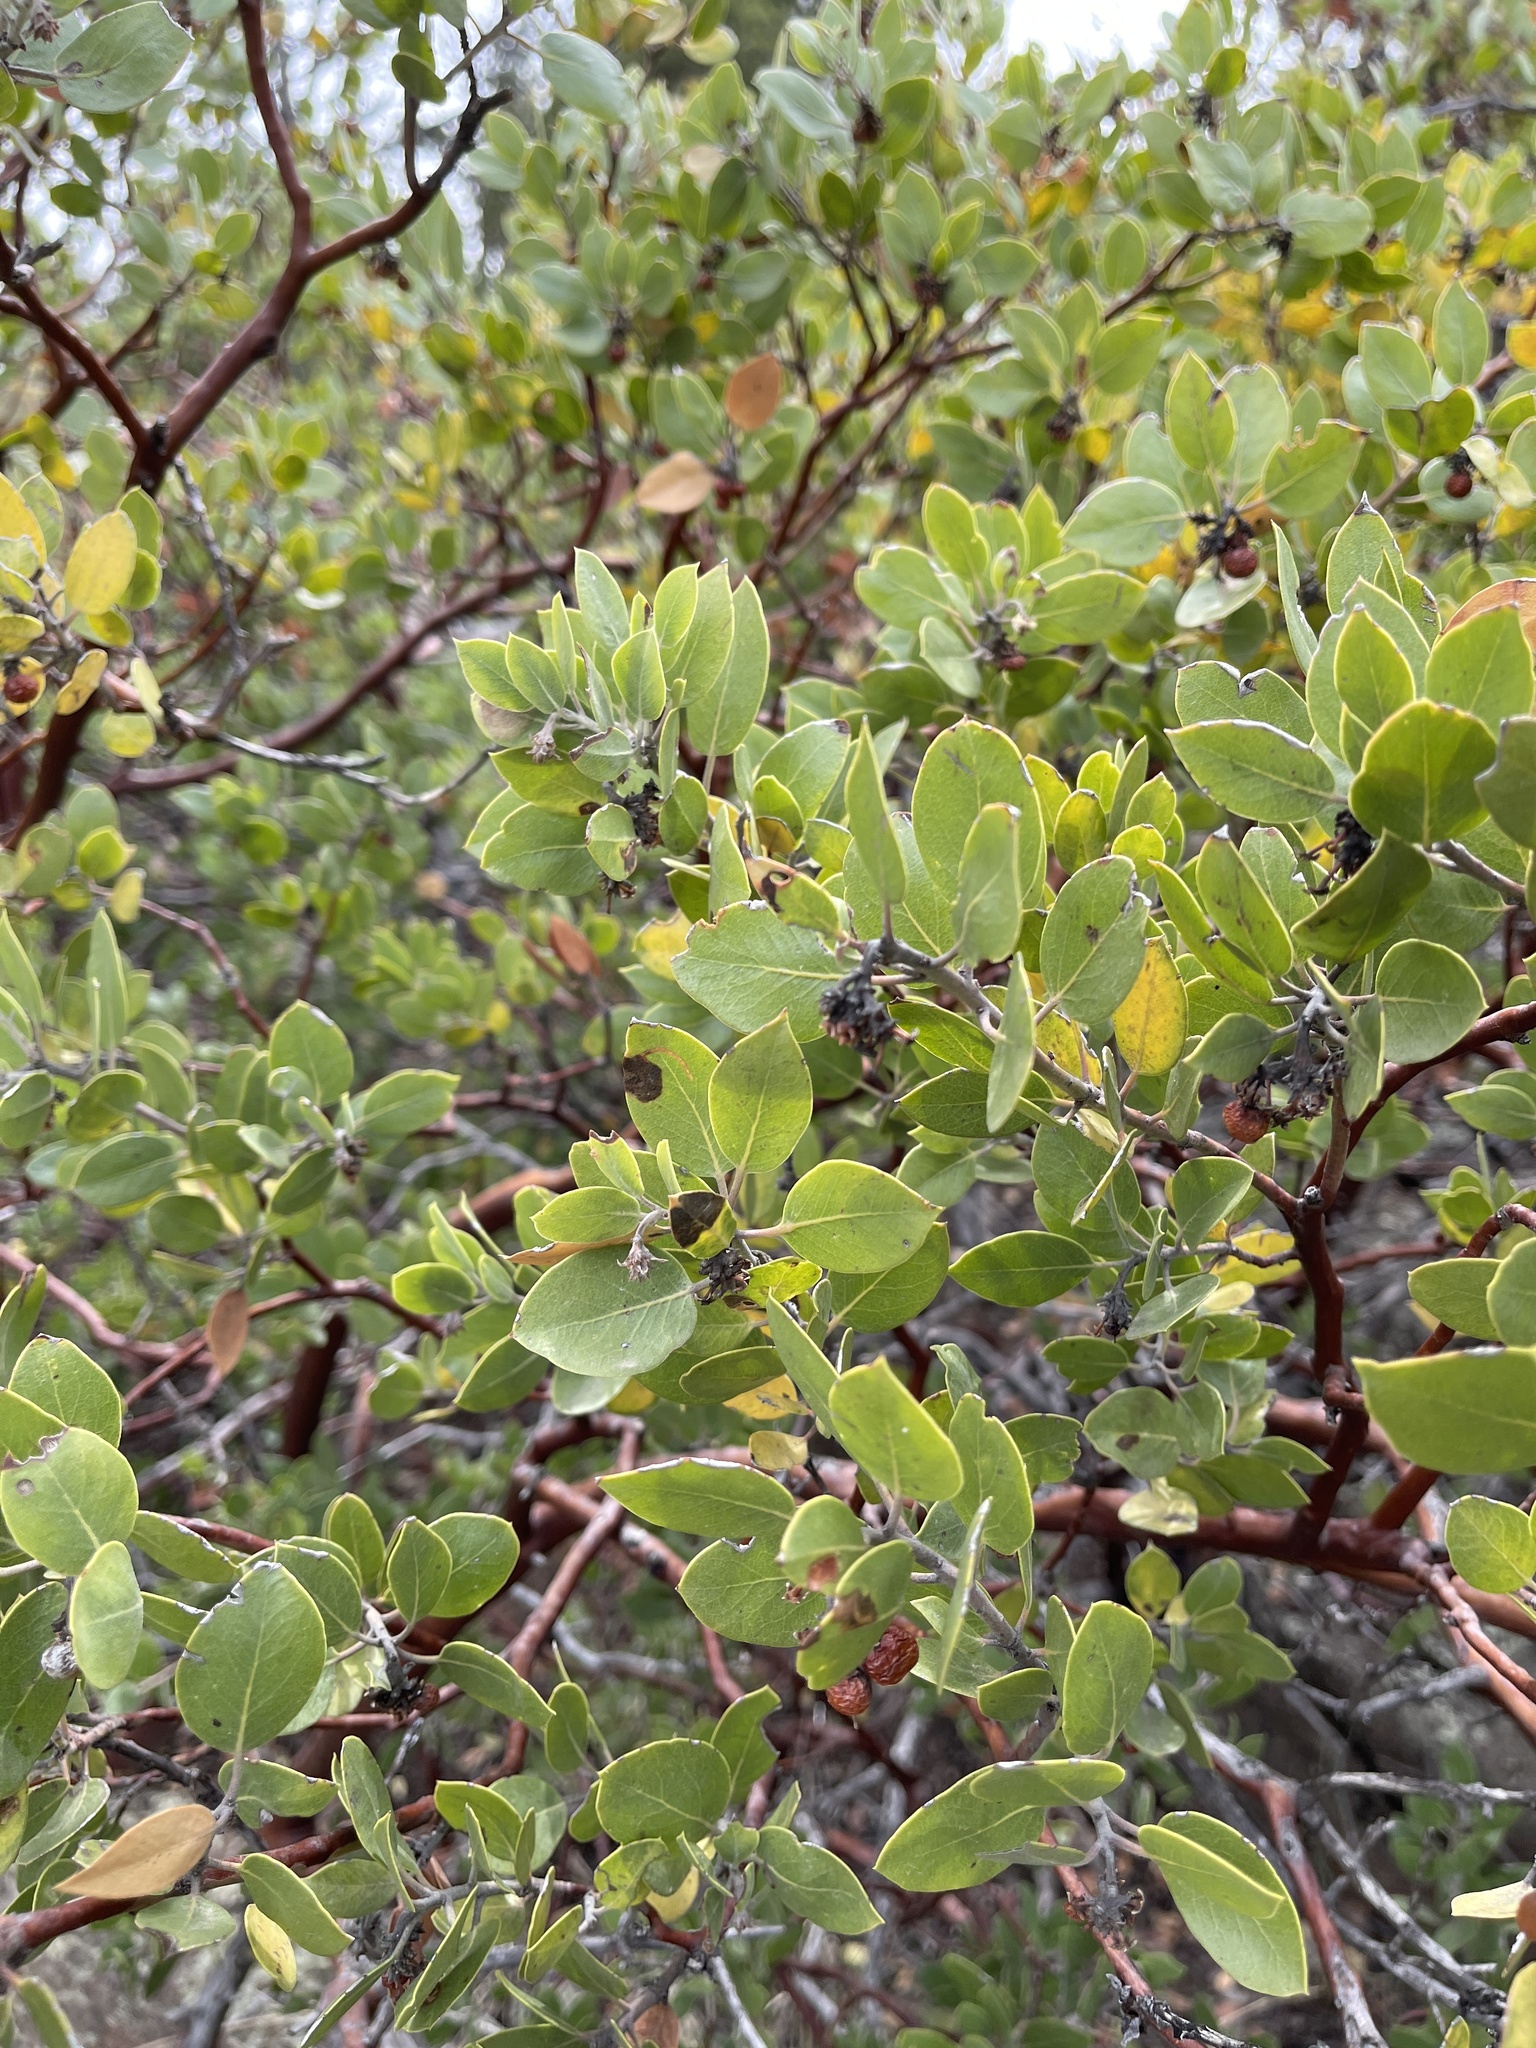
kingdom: Plantae
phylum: Tracheophyta
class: Magnoliopsida
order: Ericales
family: Ericaceae
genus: Arctostaphylos
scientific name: Arctostaphylos pungens
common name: Mexican manzanita
